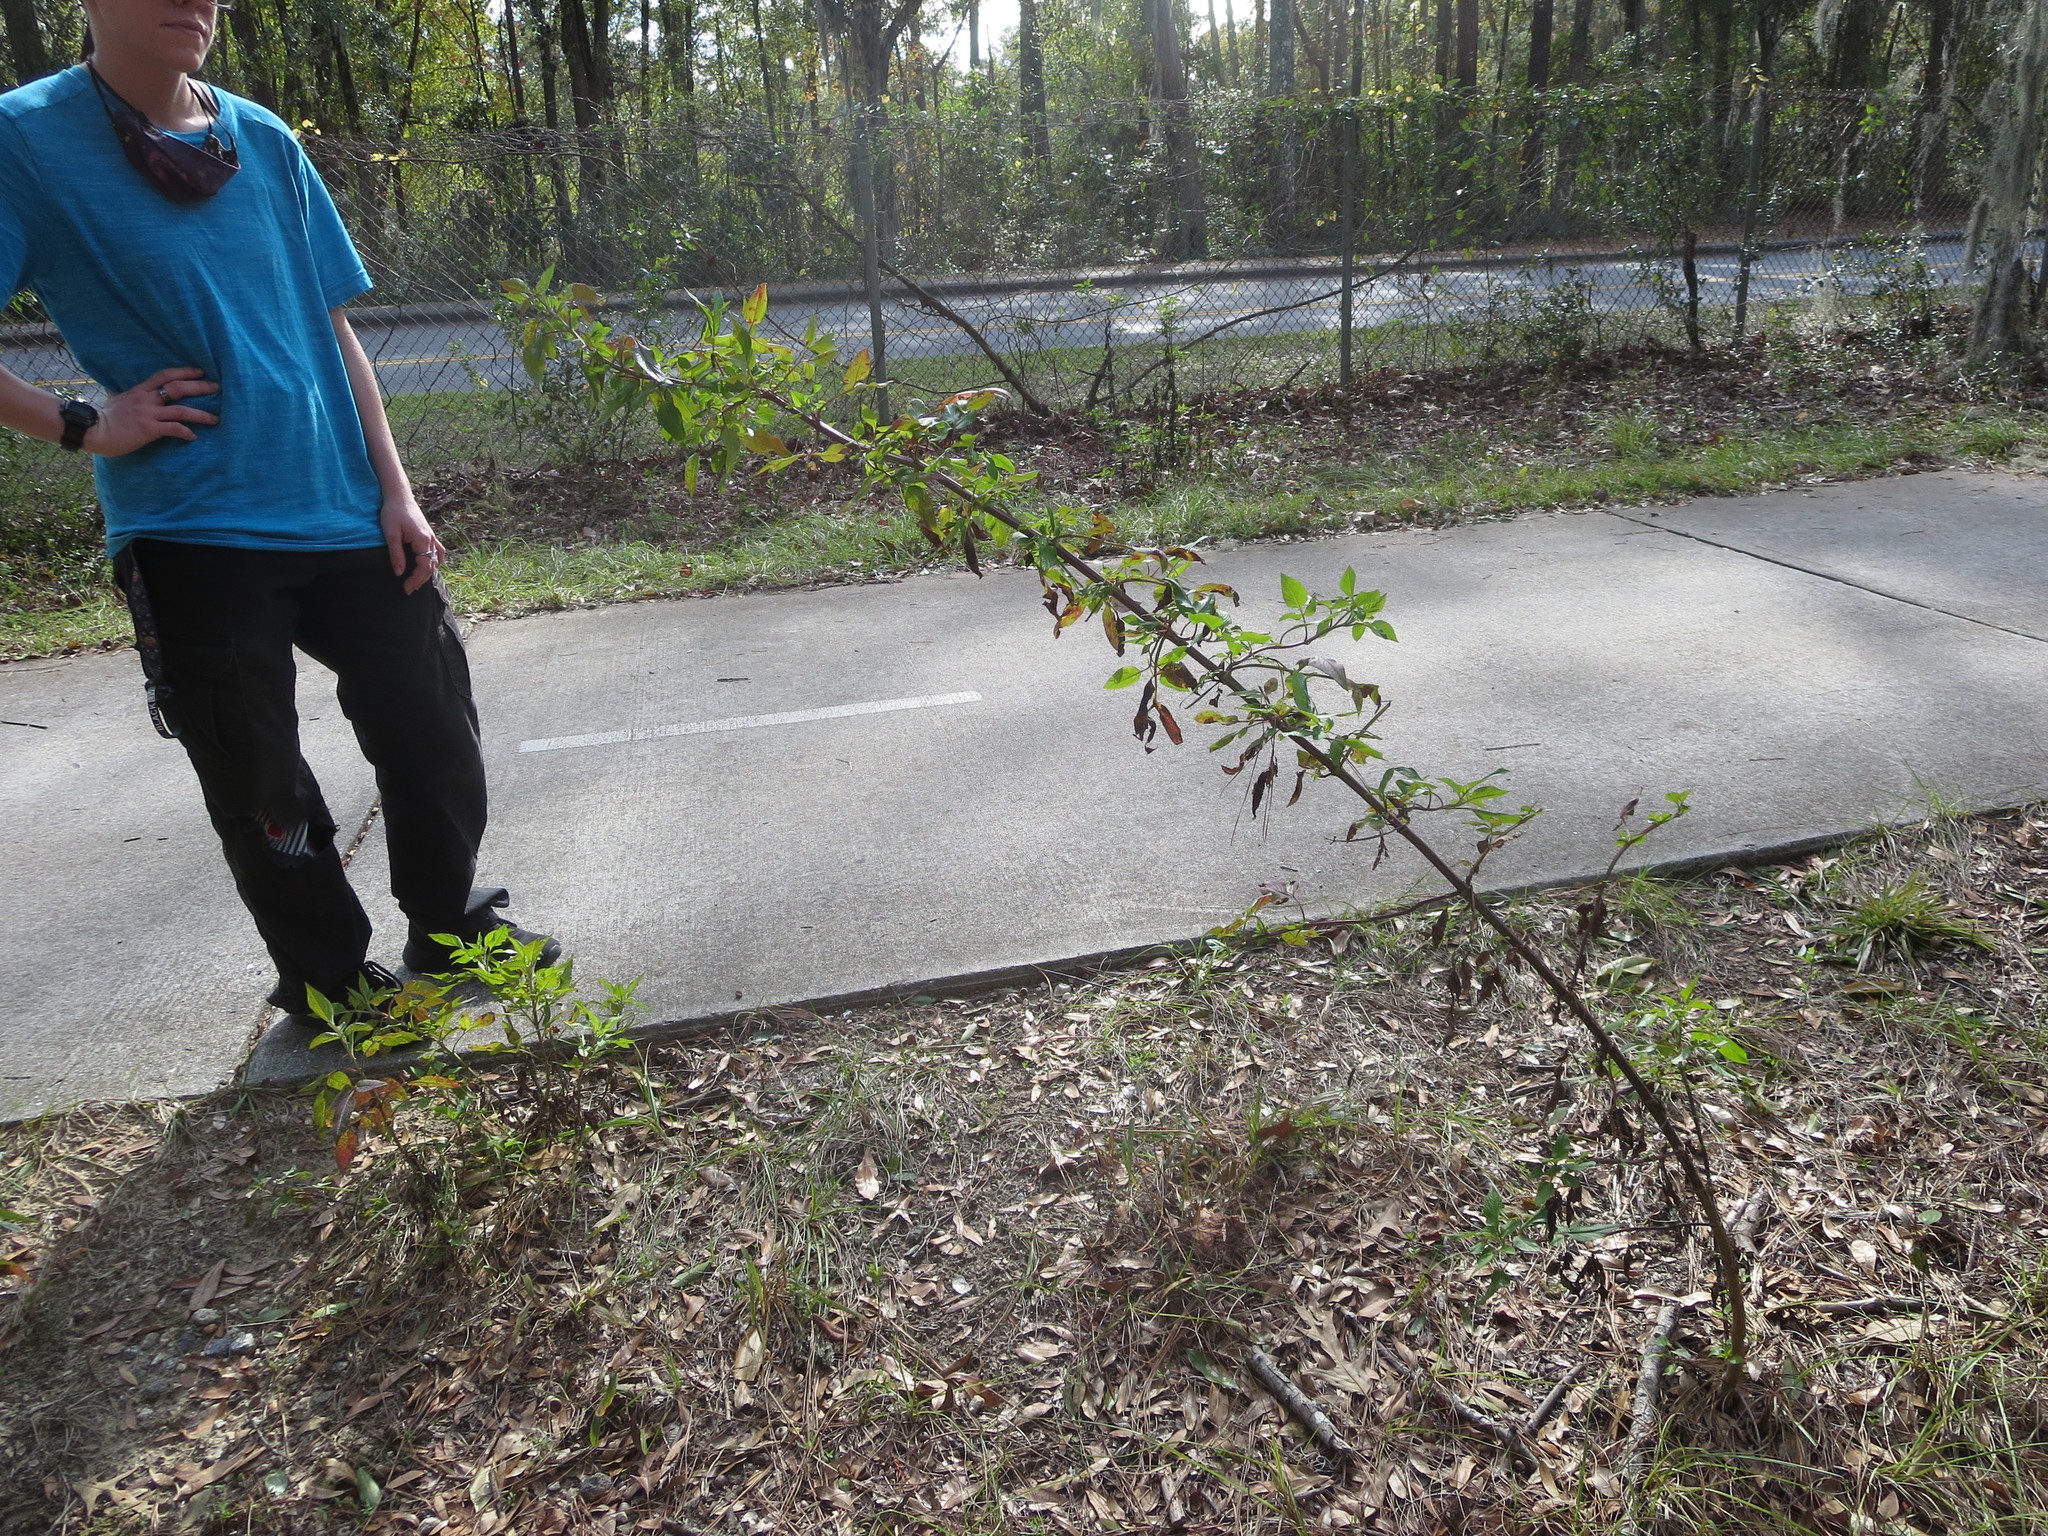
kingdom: Plantae
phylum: Tracheophyta
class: Magnoliopsida
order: Asterales
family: Asteraceae
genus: Bidens
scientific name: Bidens alba
